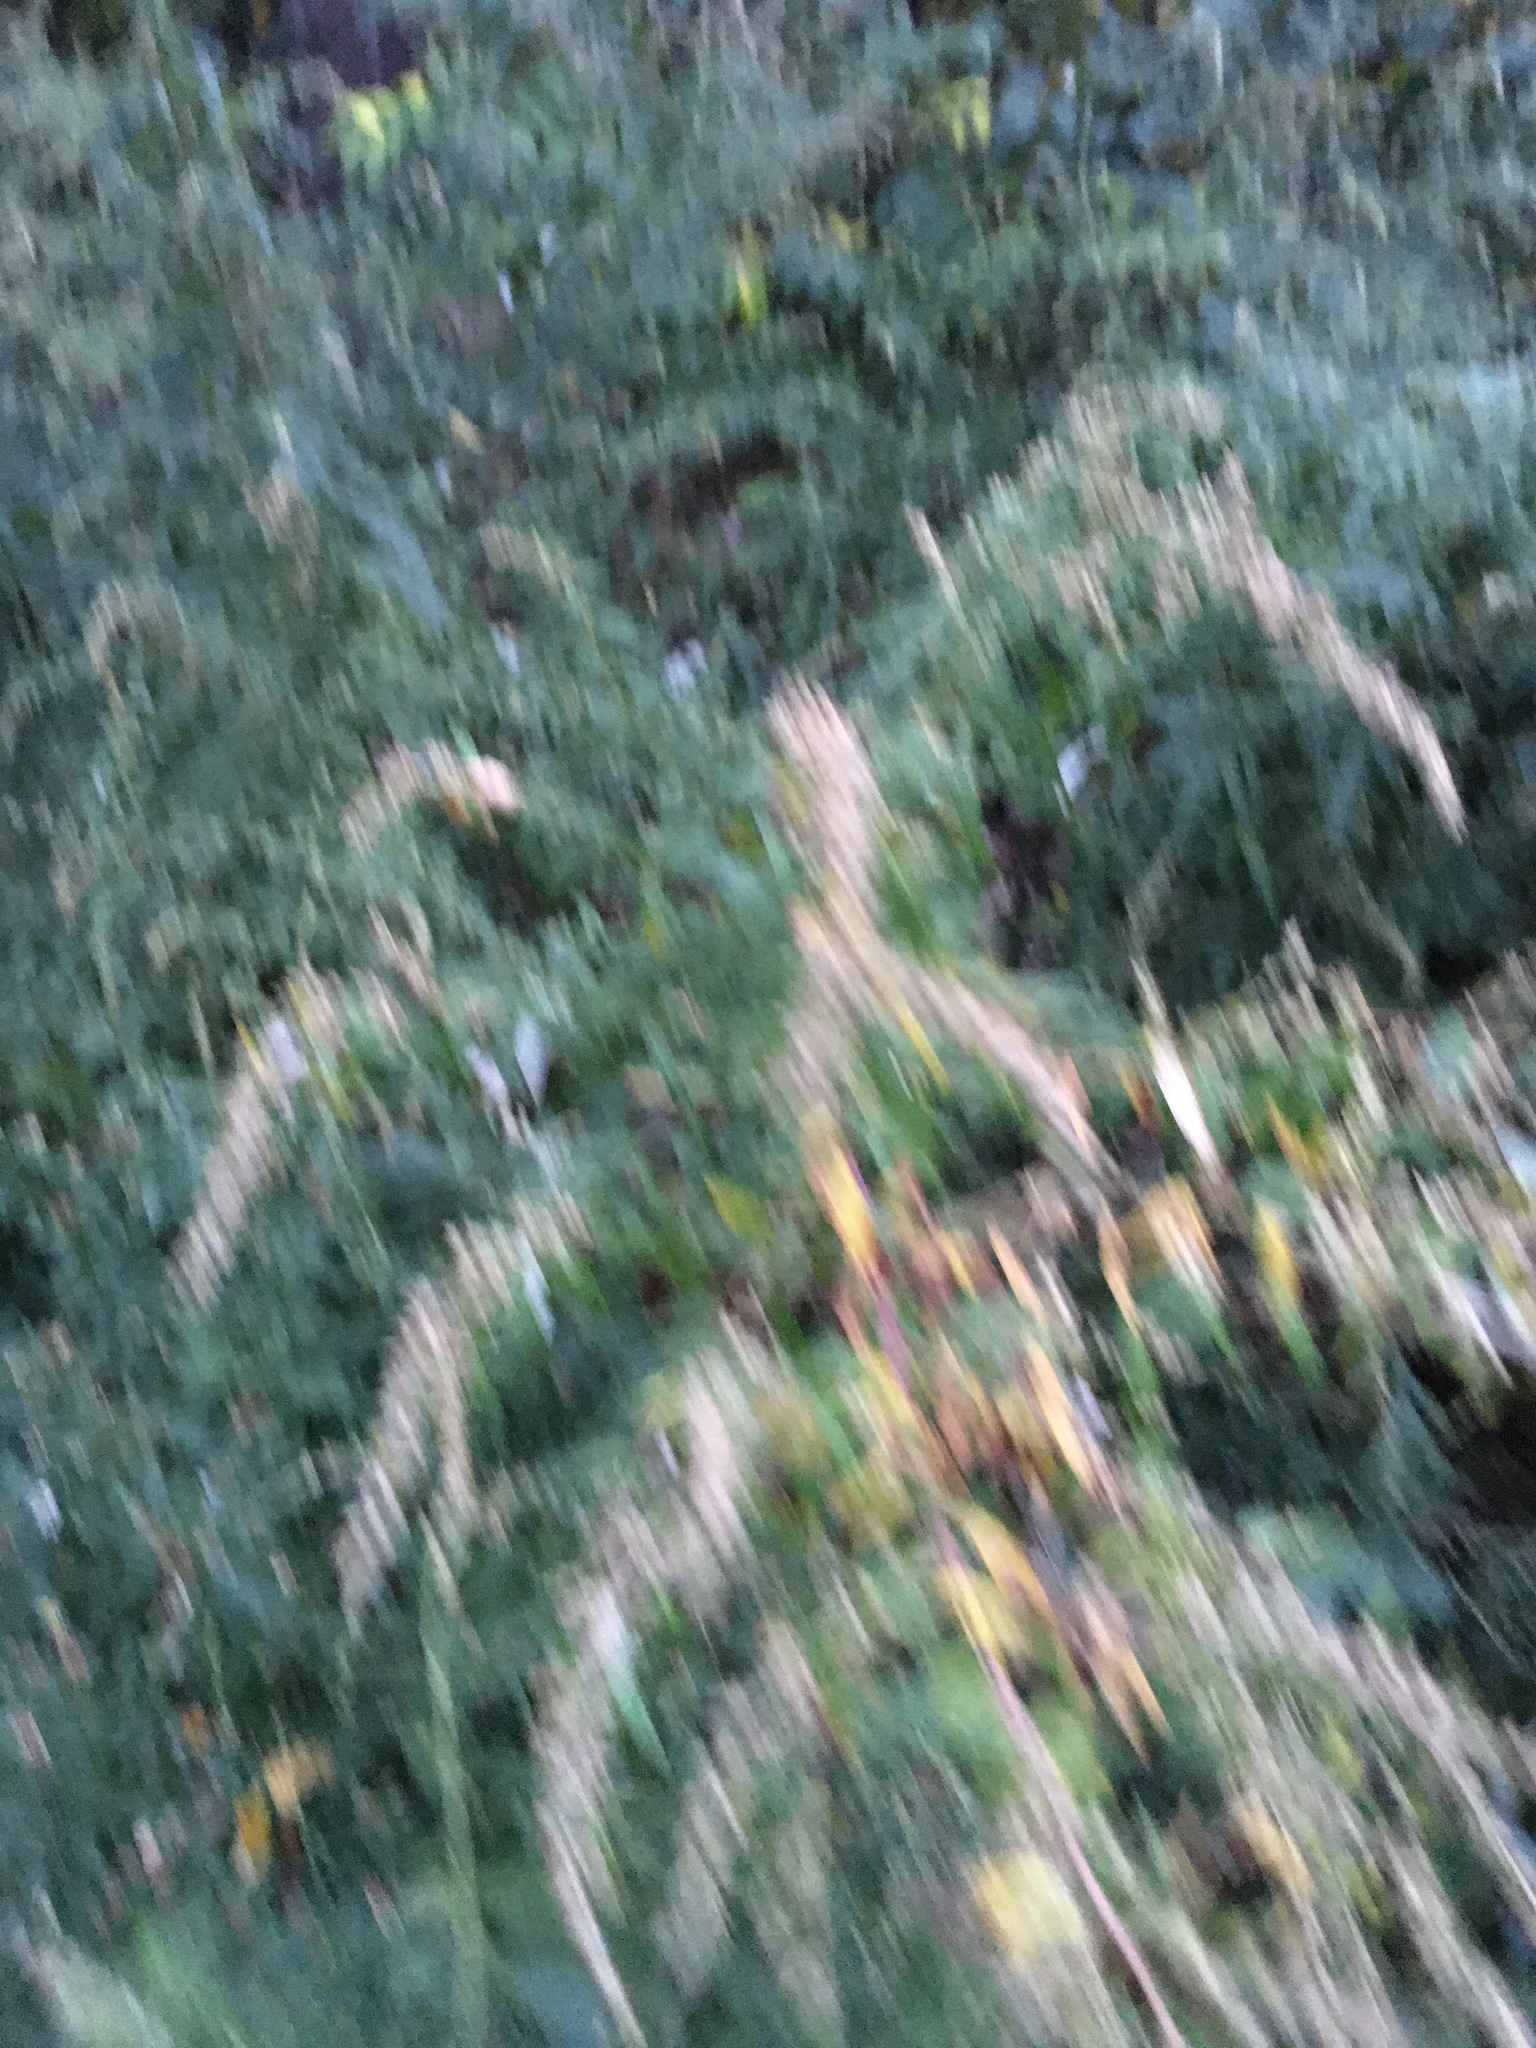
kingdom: Plantae
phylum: Tracheophyta
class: Magnoliopsida
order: Asterales
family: Asteraceae
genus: Artemisia
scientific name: Artemisia vulgaris
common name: Mugwort
